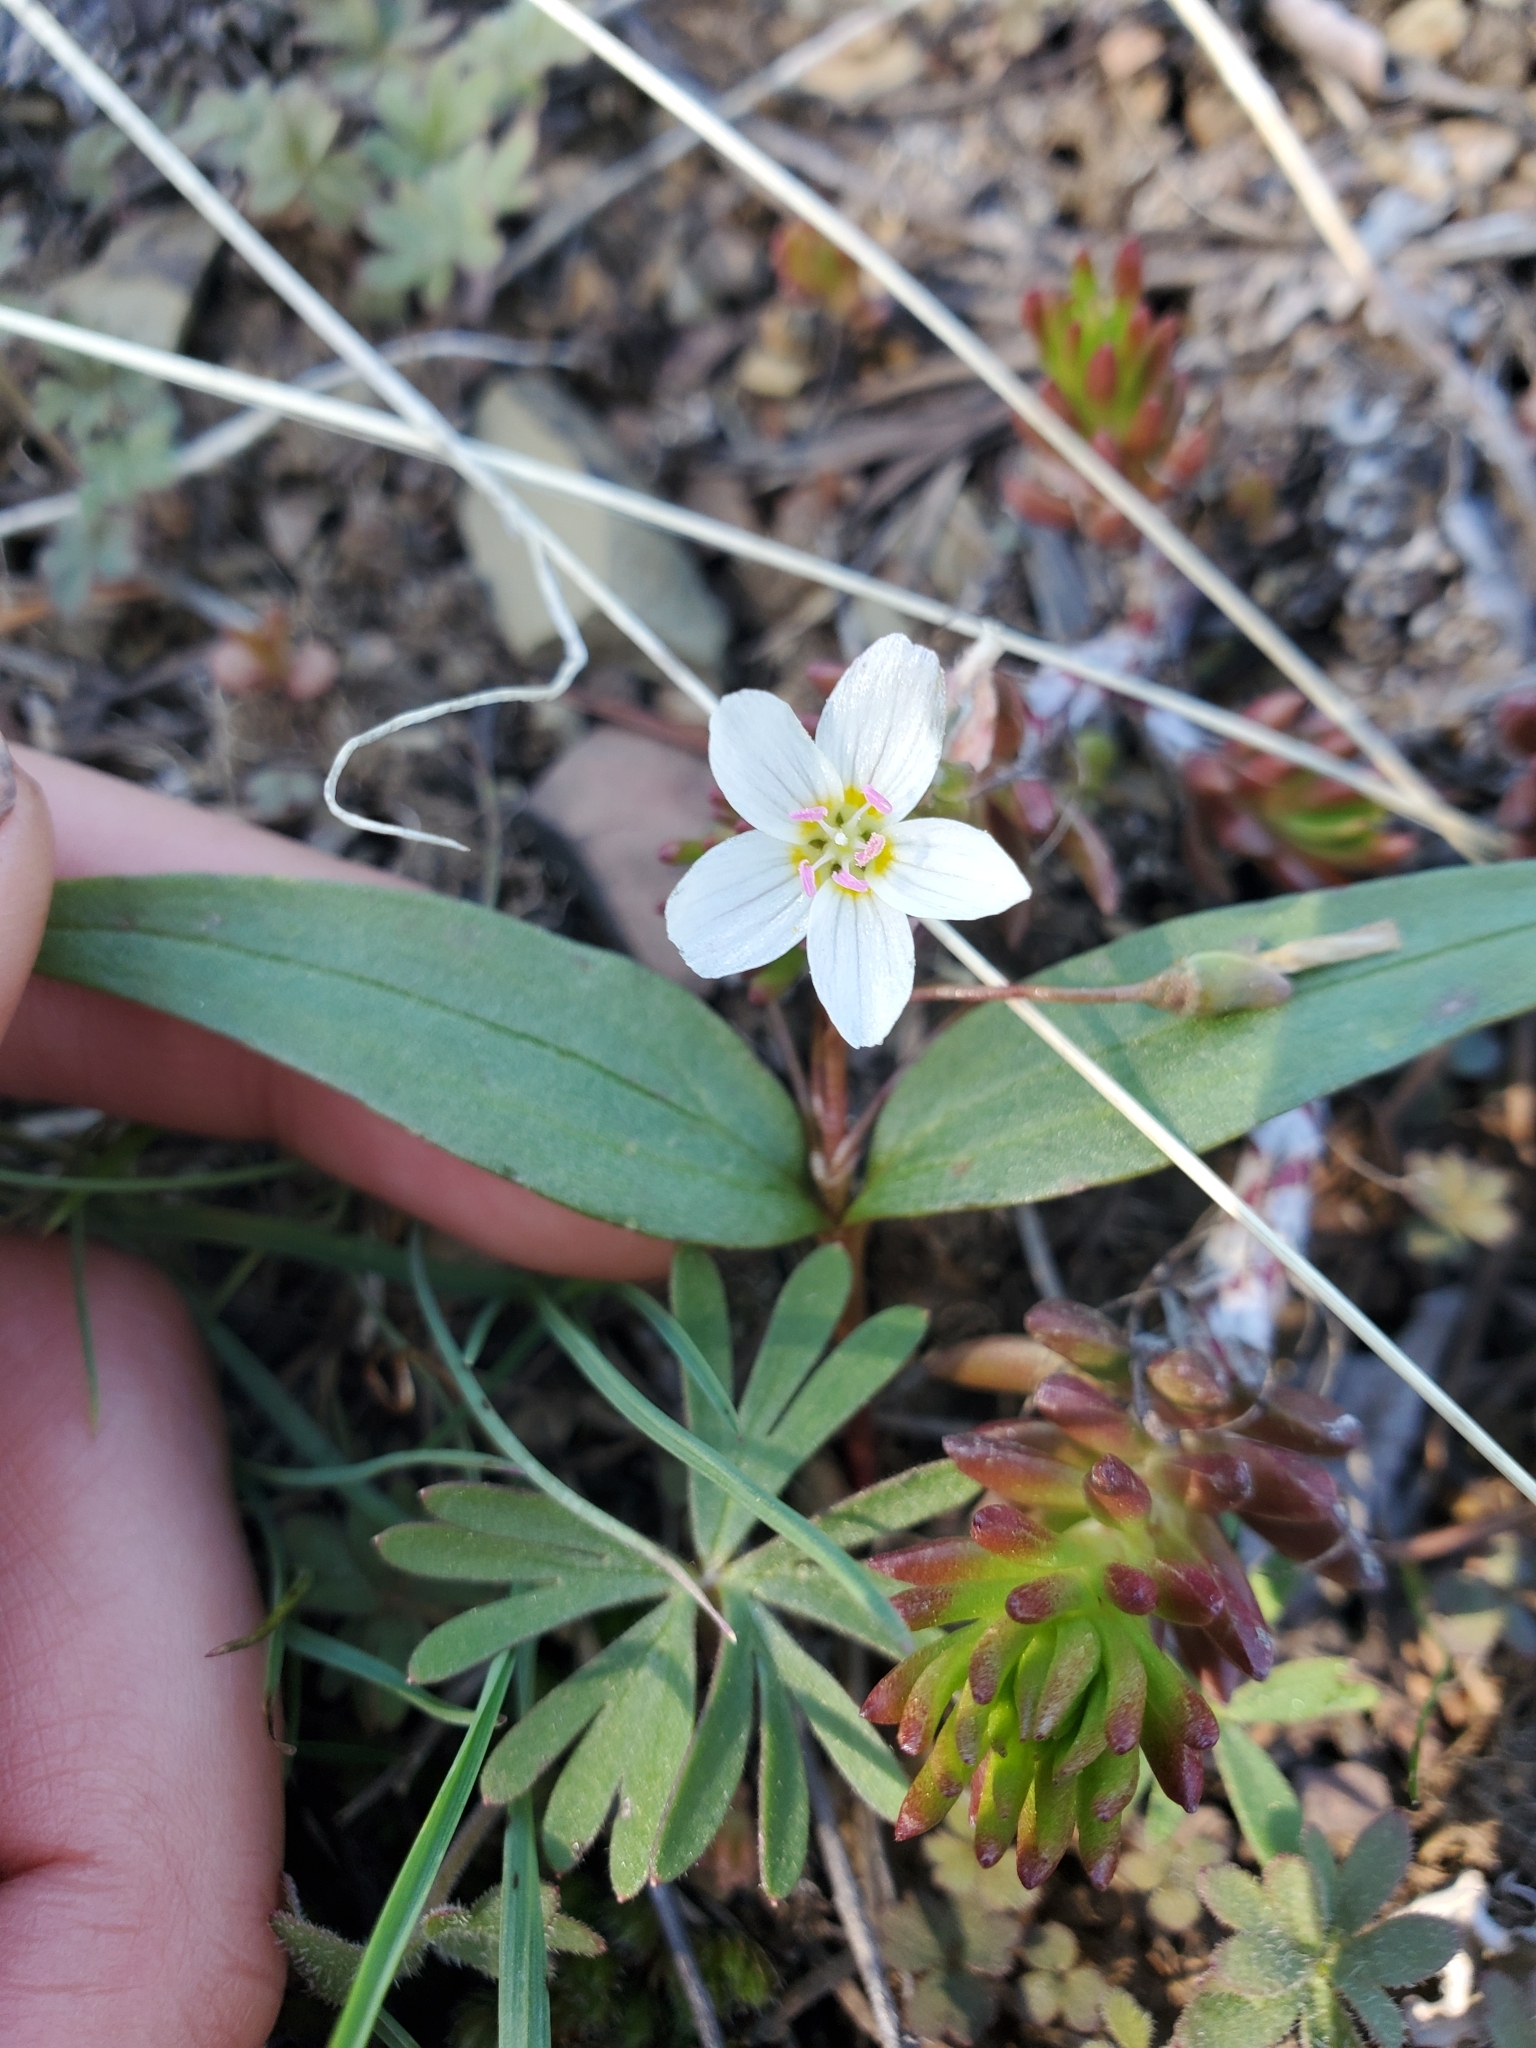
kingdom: Plantae
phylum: Tracheophyta
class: Magnoliopsida
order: Caryophyllales
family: Montiaceae
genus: Claytonia
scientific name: Claytonia lanceolata
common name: Western spring-beauty
